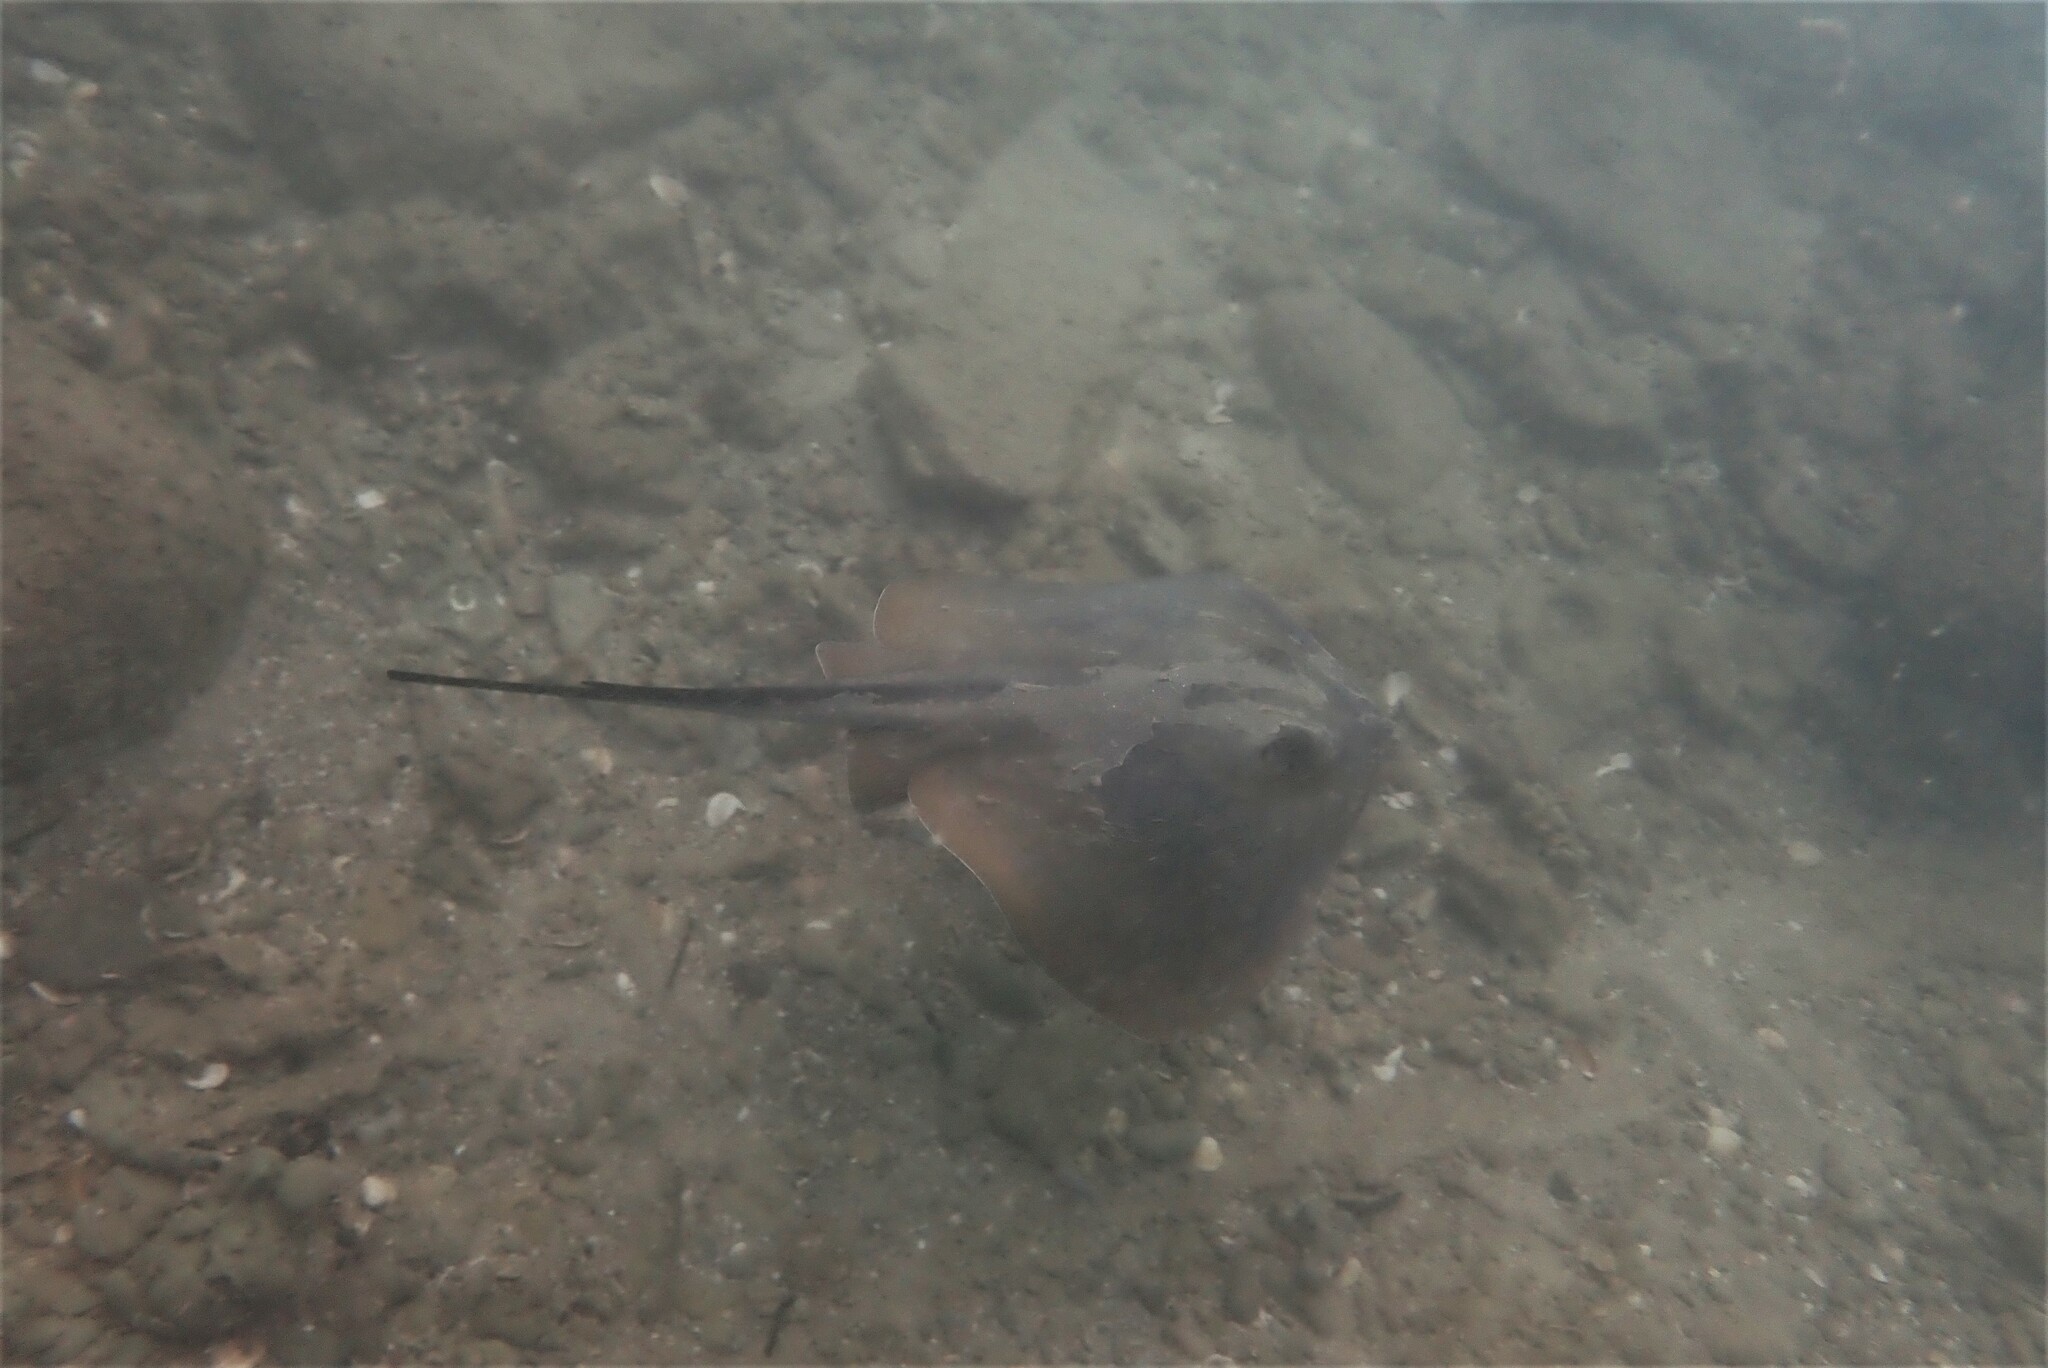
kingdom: Animalia
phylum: Chordata
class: Elasmobranchii
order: Myliobatiformes
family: Dasyatidae
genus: Dasyatis
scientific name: Dasyatis pastinaca
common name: Common stingray
